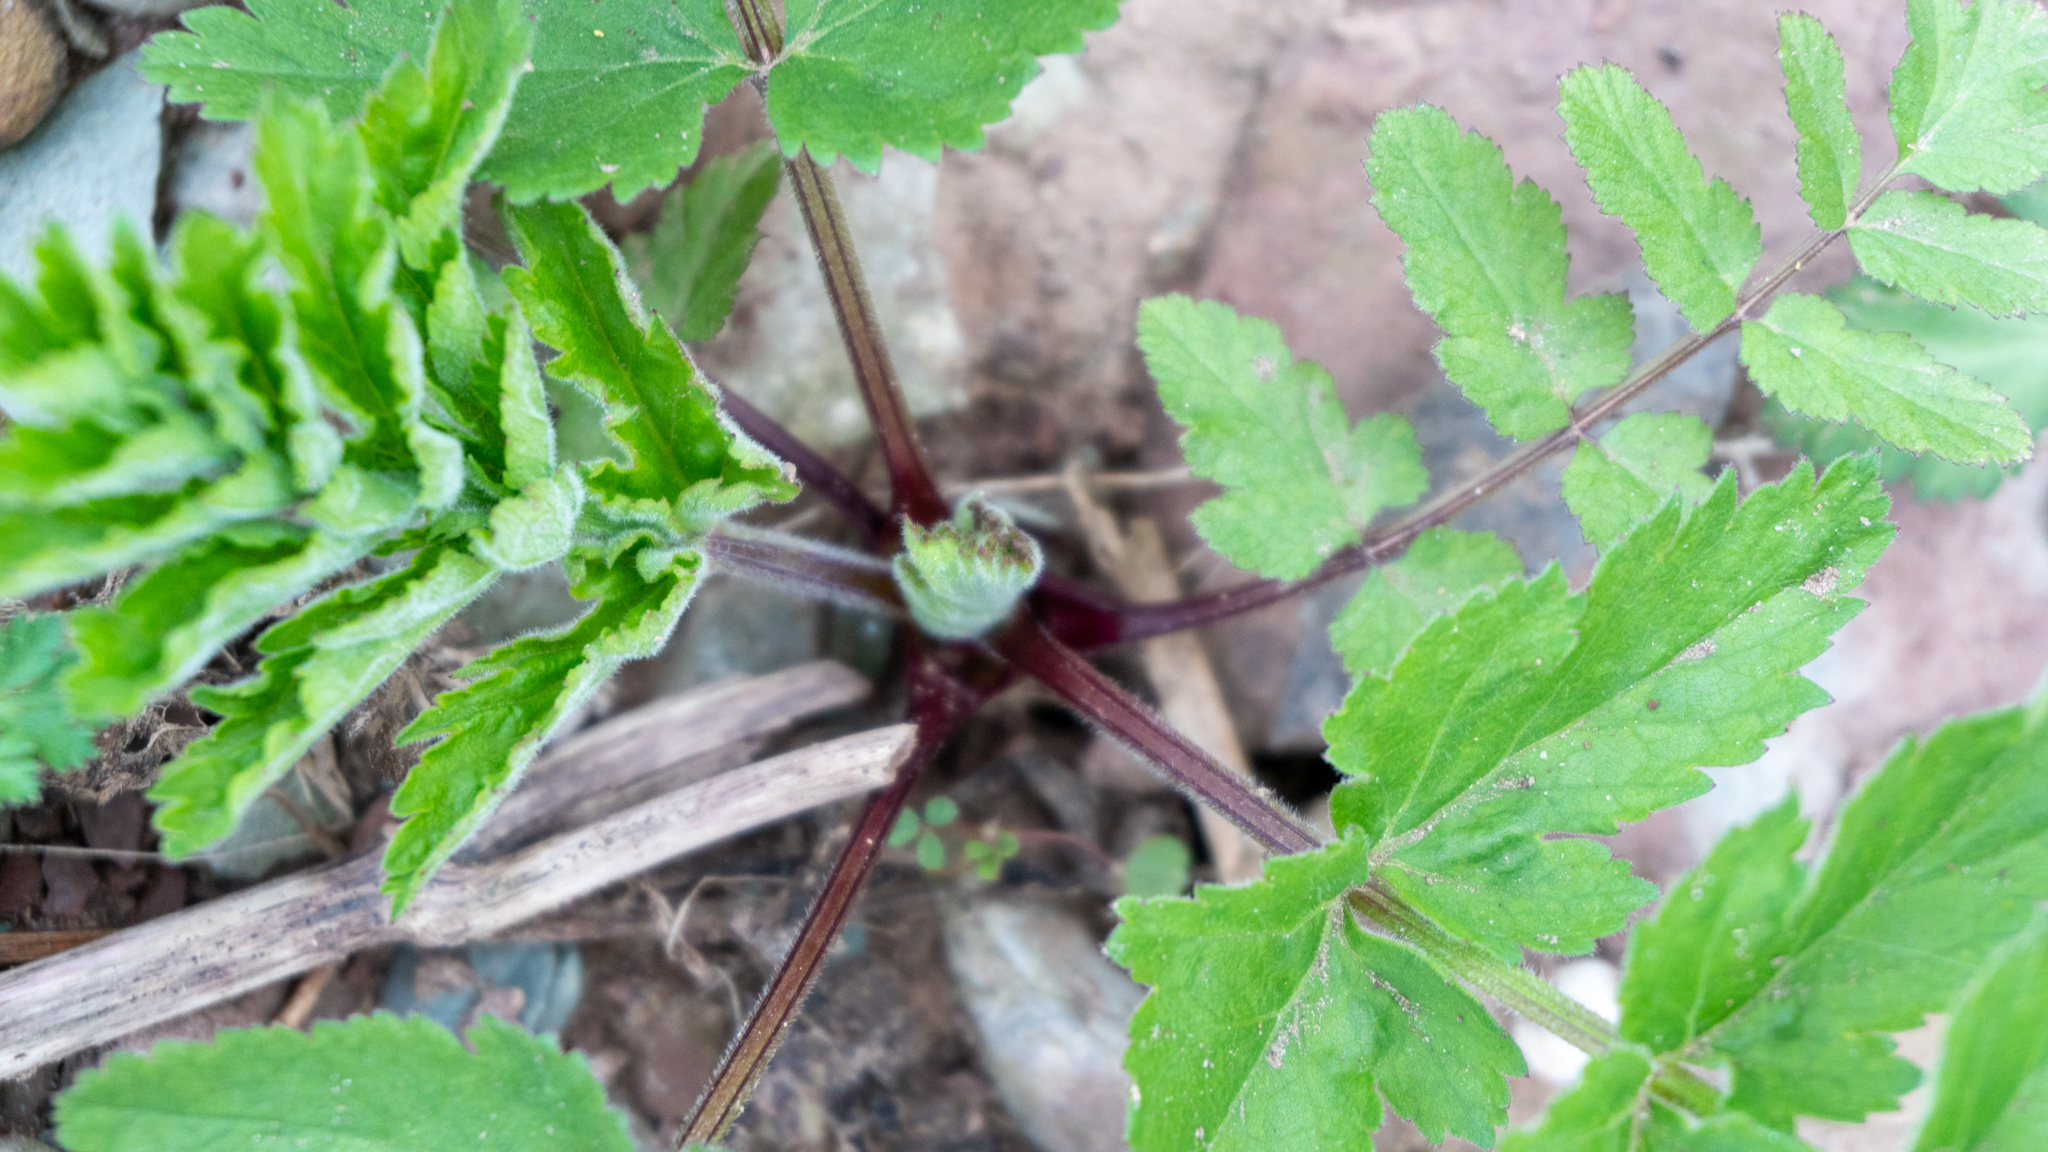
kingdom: Plantae
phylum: Tracheophyta
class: Magnoliopsida
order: Apiales
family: Apiaceae
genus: Pastinaca
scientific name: Pastinaca sativa
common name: Wild parsnip
